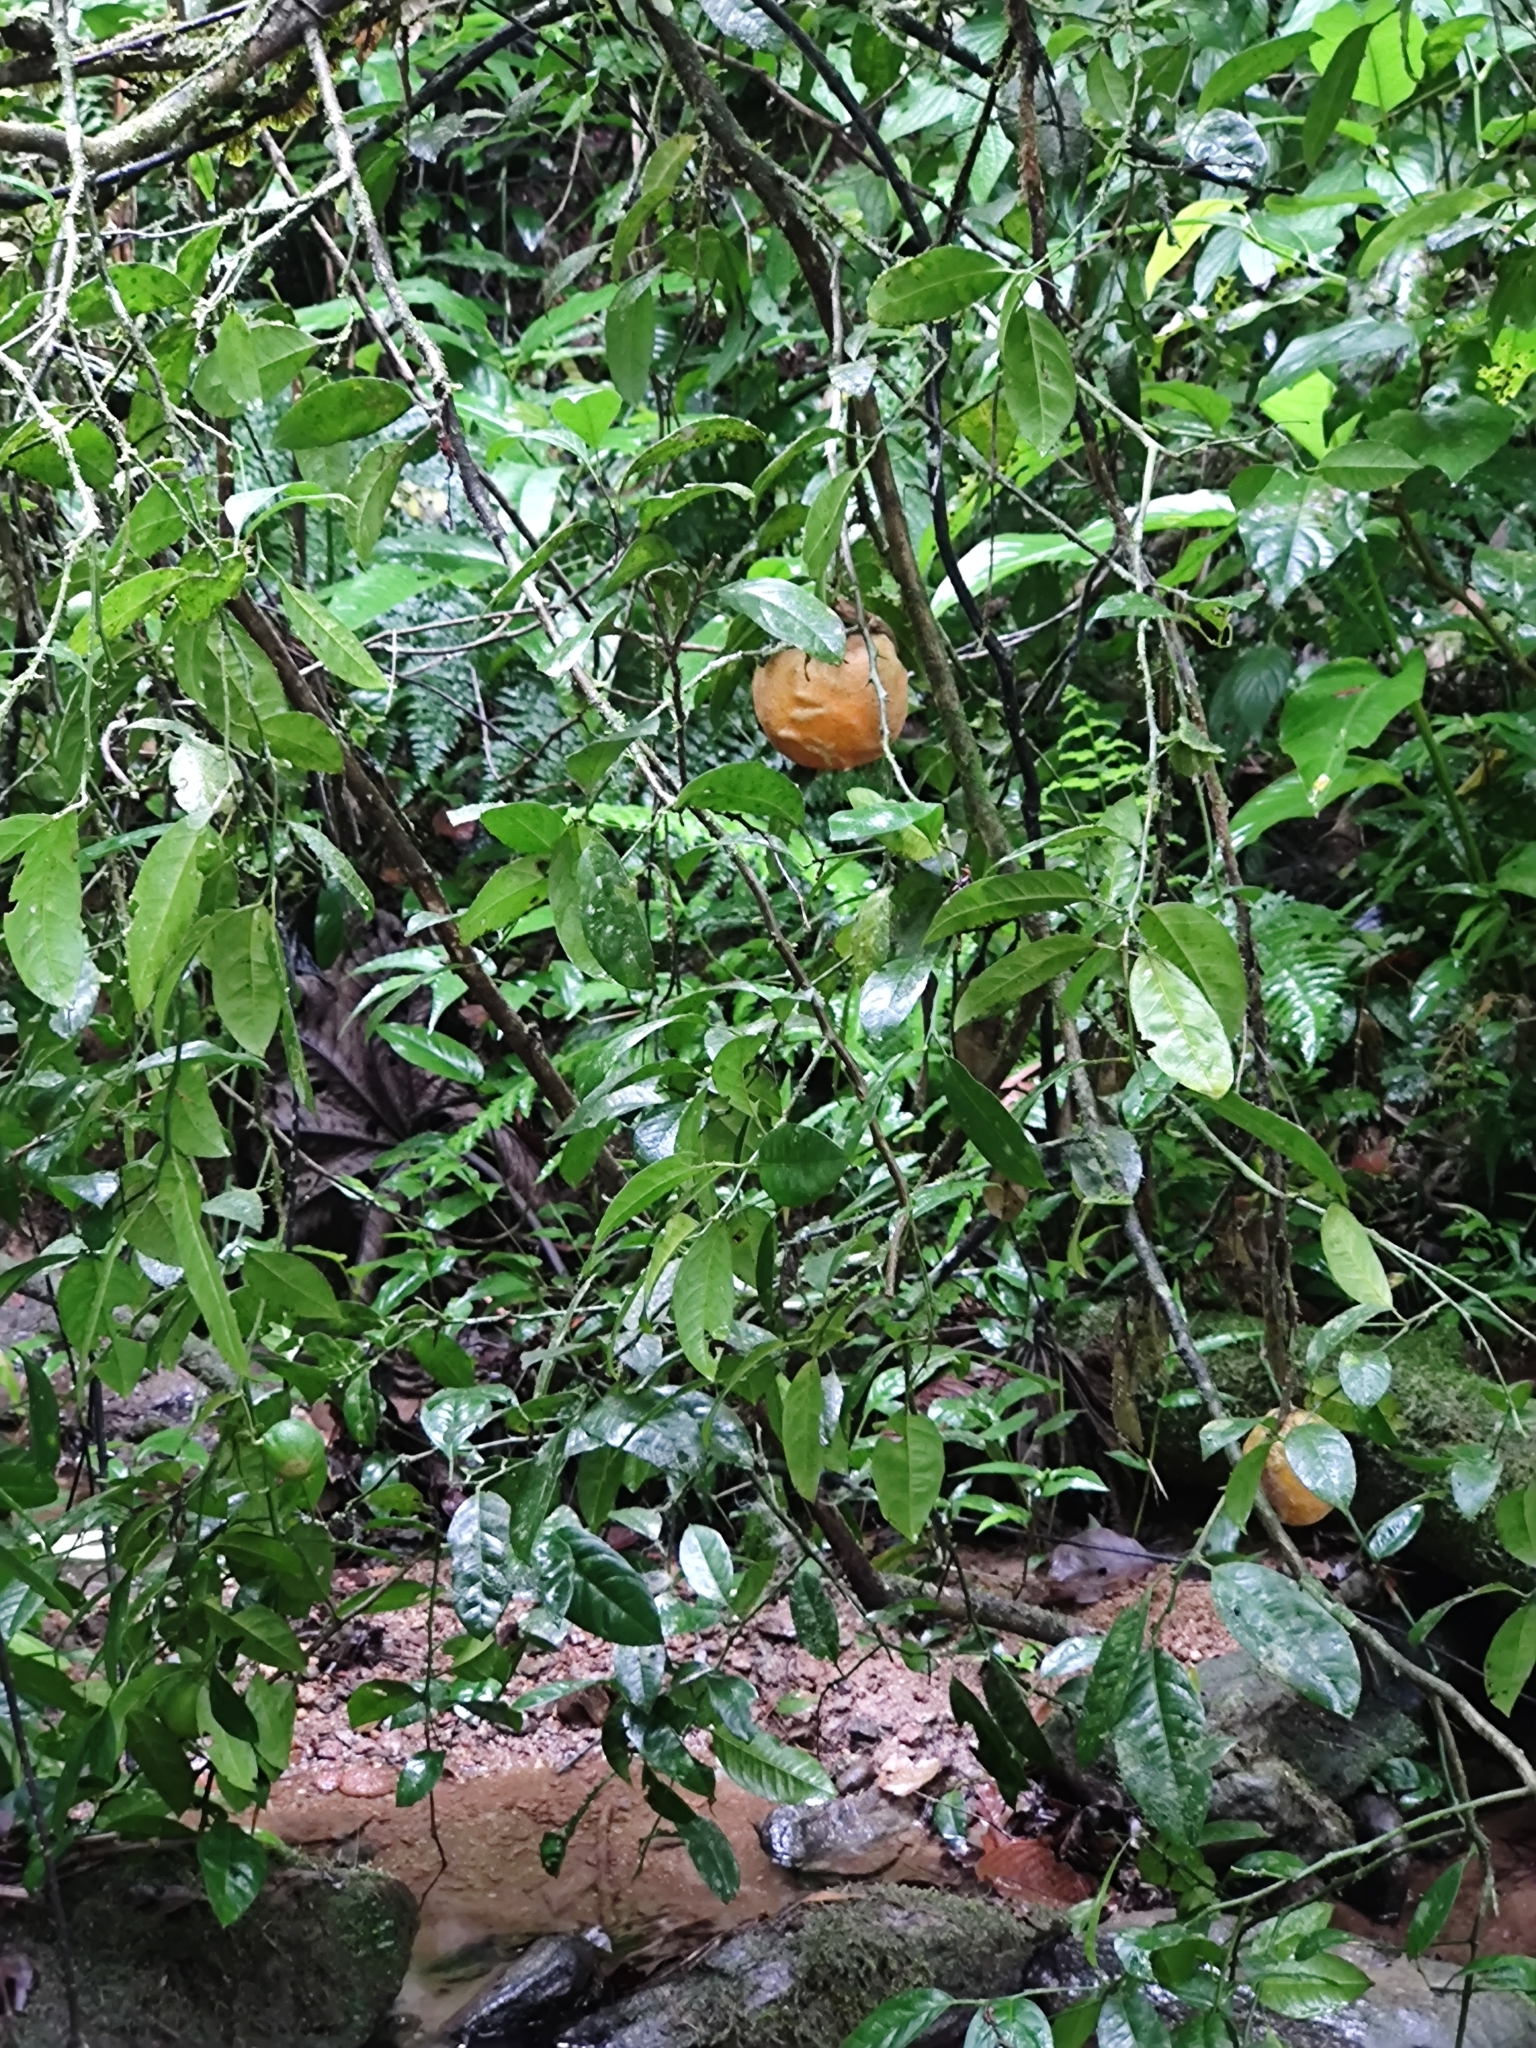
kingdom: Plantae
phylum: Tracheophyta
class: Magnoliopsida
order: Sapindales
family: Rutaceae
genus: Citrus
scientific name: Citrus limon
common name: Lemon
